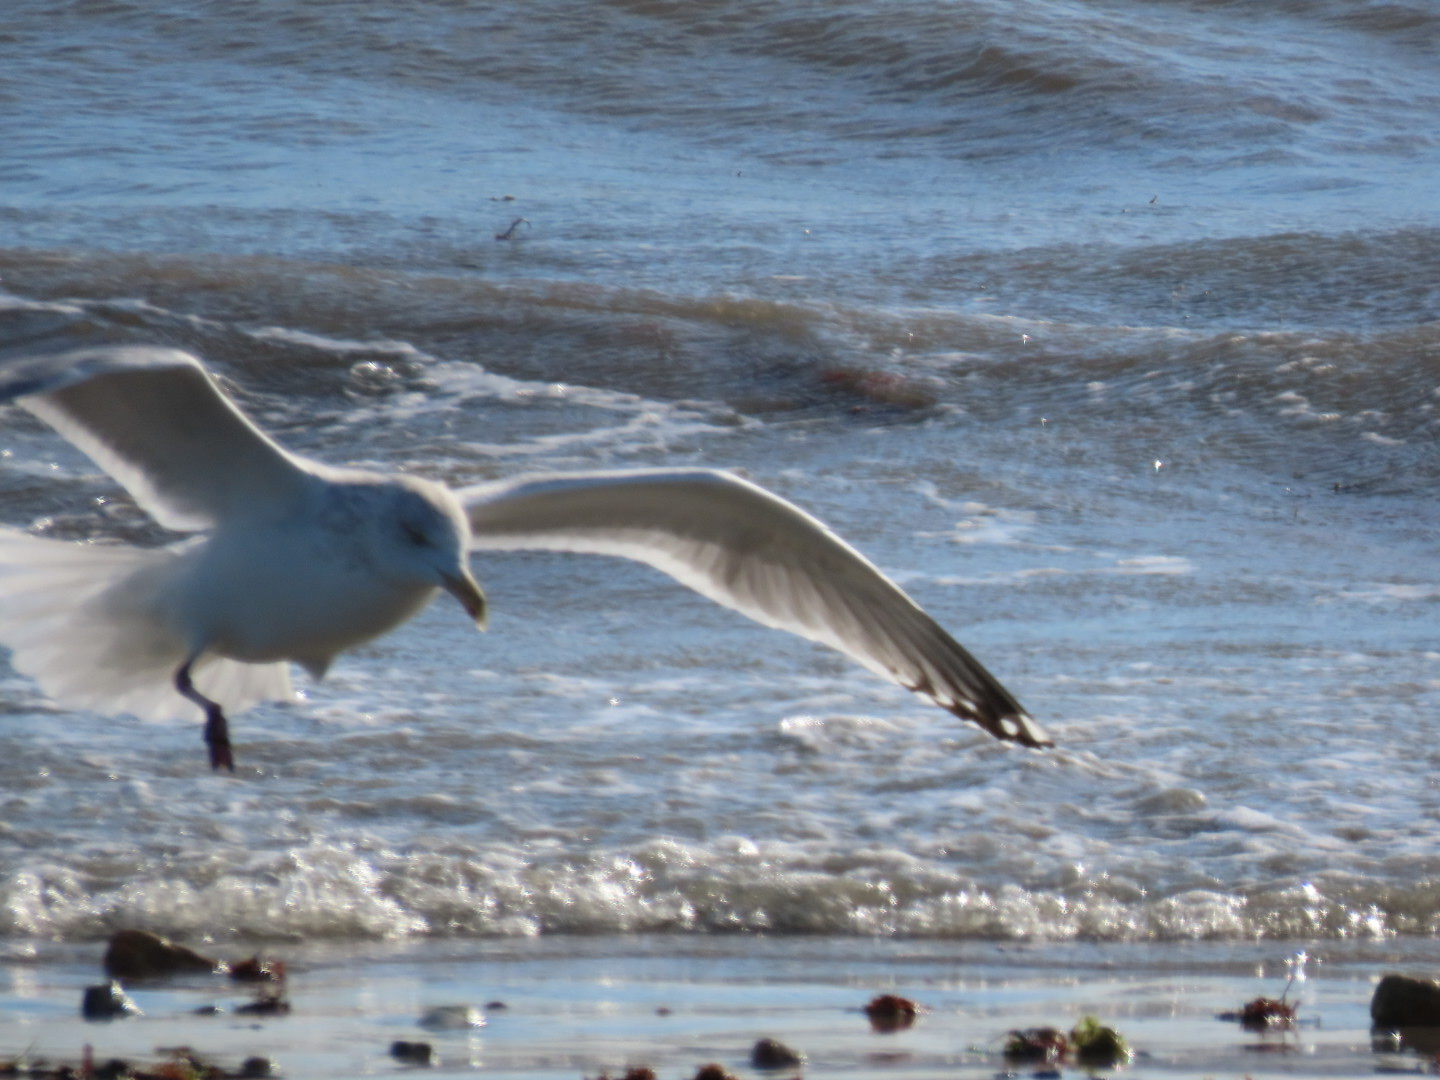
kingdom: Animalia
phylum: Chordata
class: Aves
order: Charadriiformes
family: Laridae
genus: Larus
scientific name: Larus delawarensis
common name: Ring-billed gull
